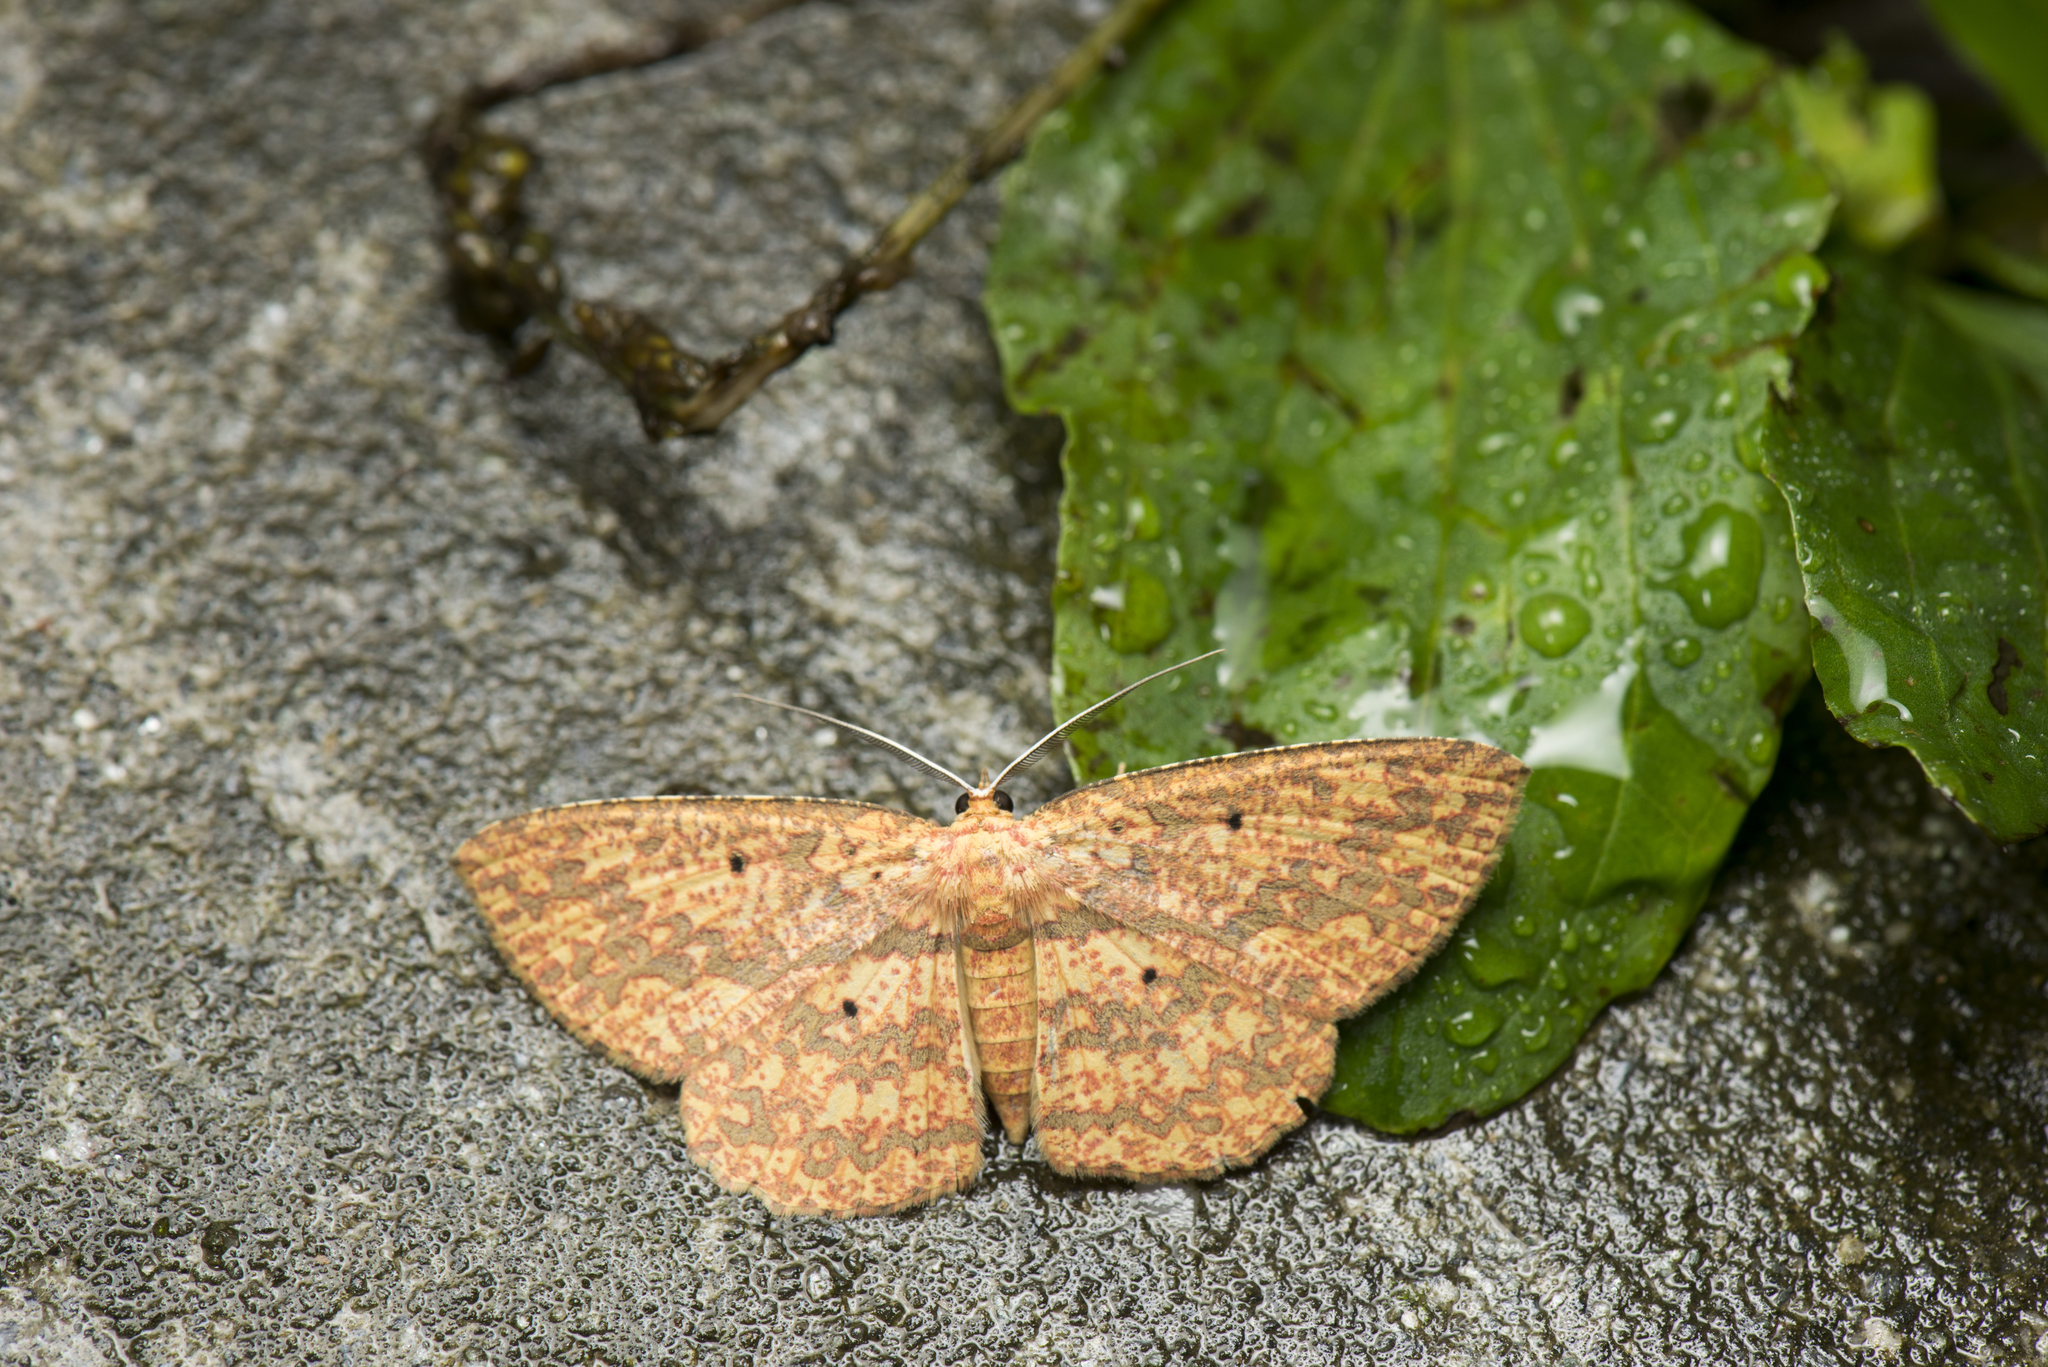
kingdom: Animalia
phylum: Arthropoda
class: Insecta
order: Lepidoptera
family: Geometridae
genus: Borbacha
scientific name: Borbacha pardaria
